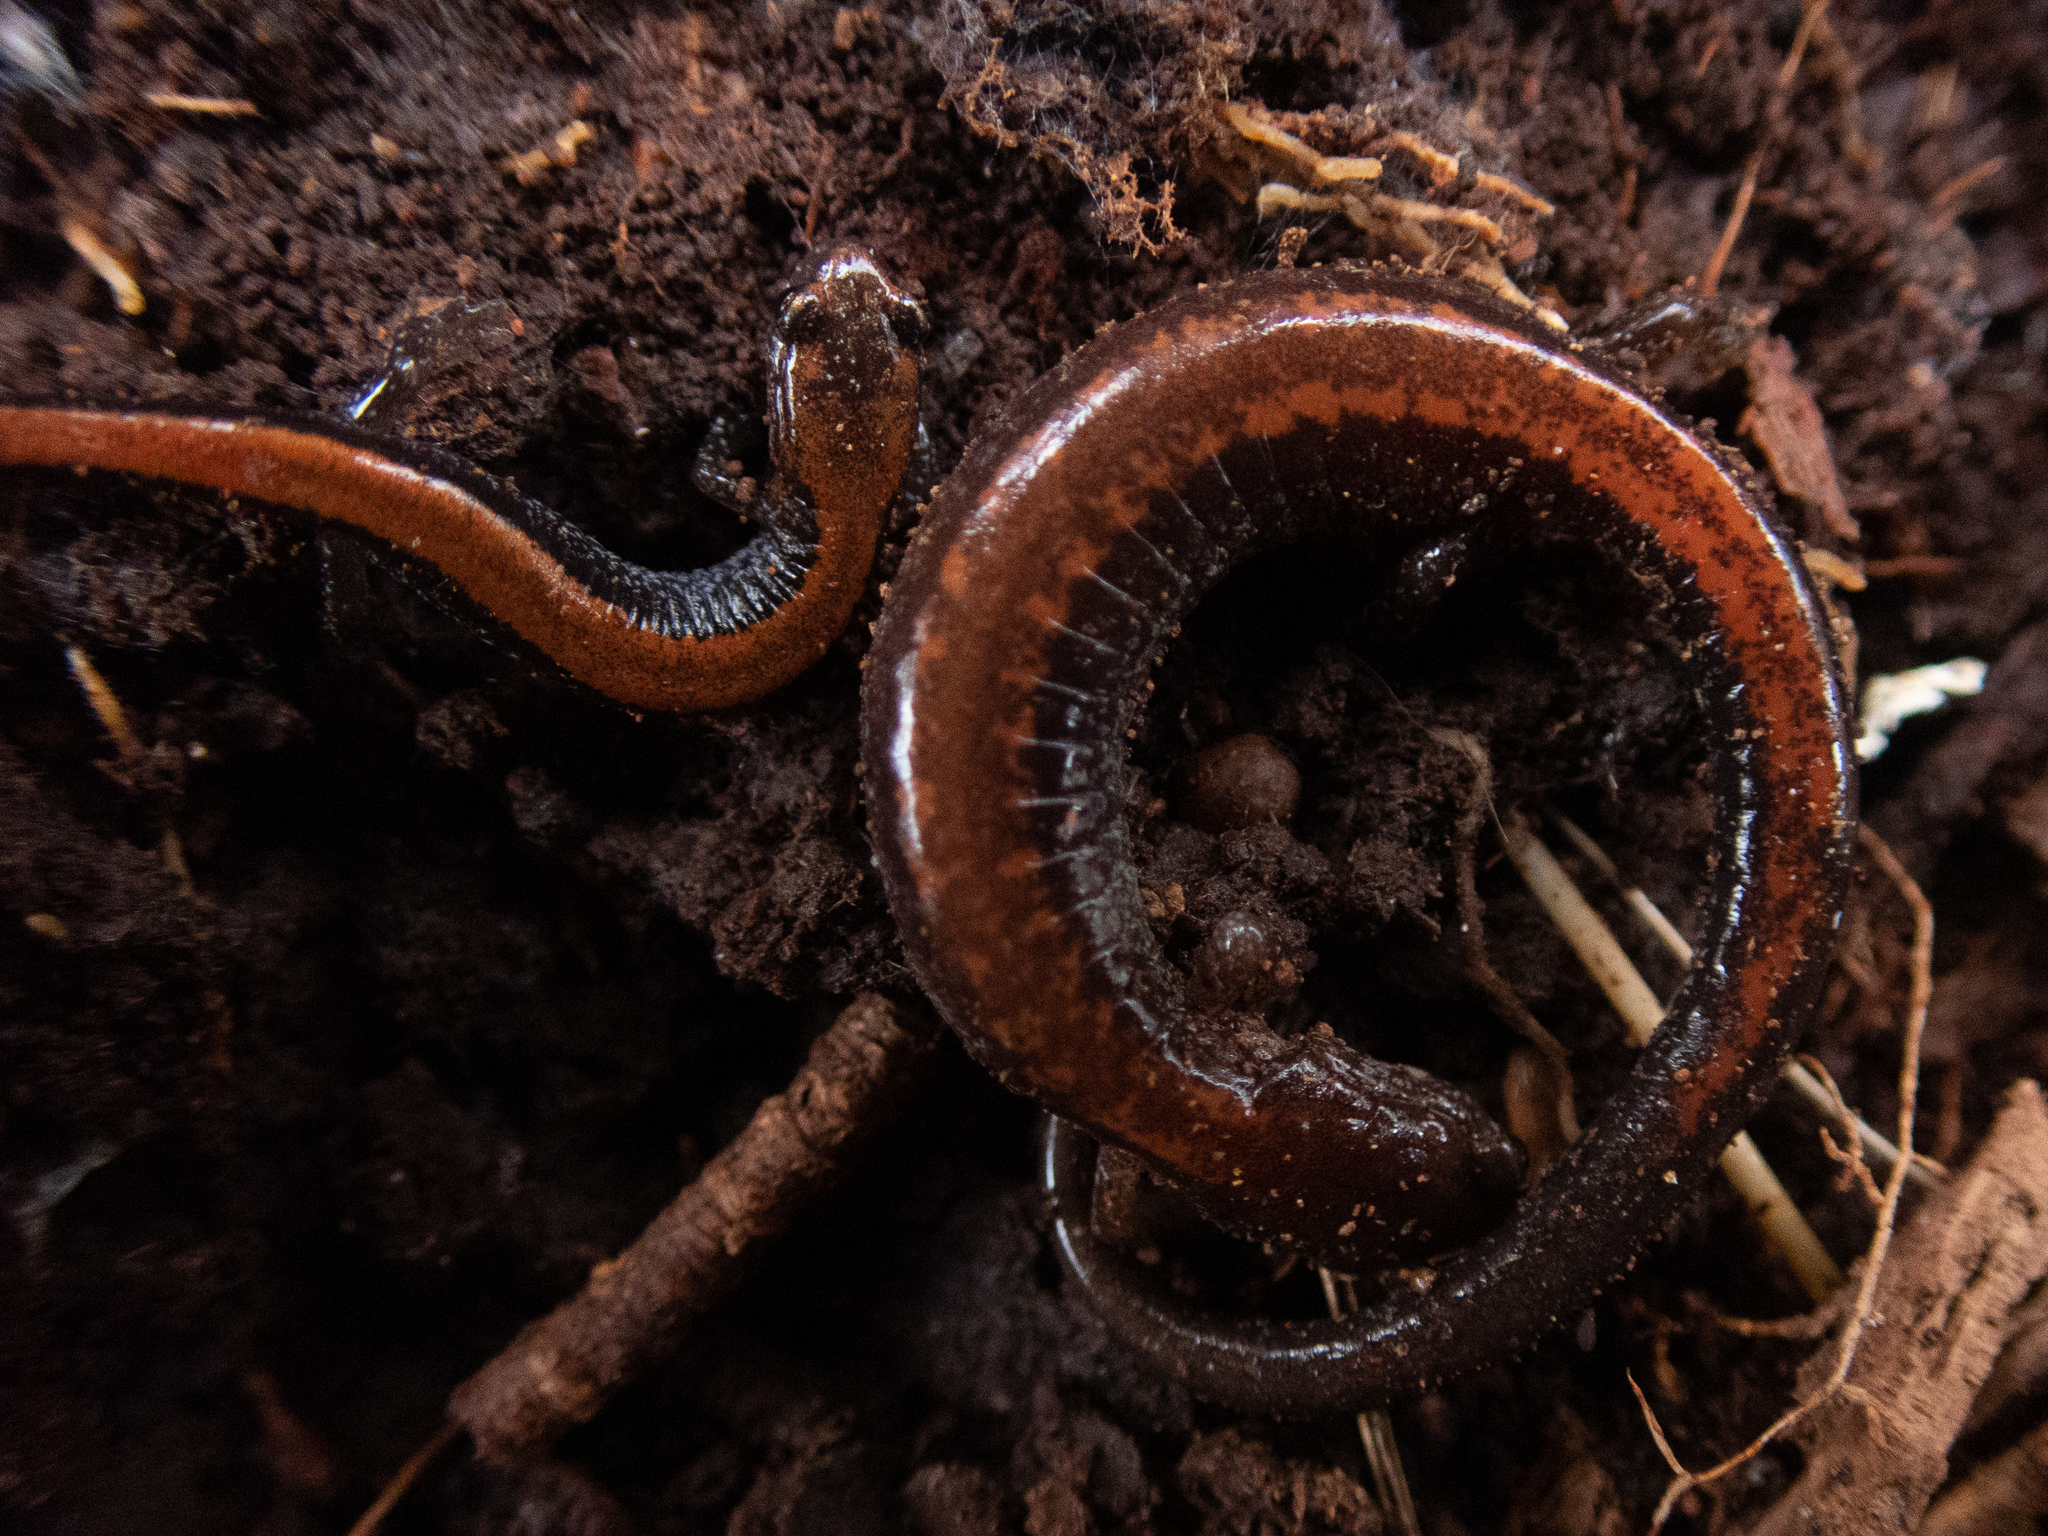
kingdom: Animalia
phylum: Chordata
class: Amphibia
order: Caudata
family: Plethodontidae
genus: Plethodon
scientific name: Plethodon cinereus
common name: Redback salamander
